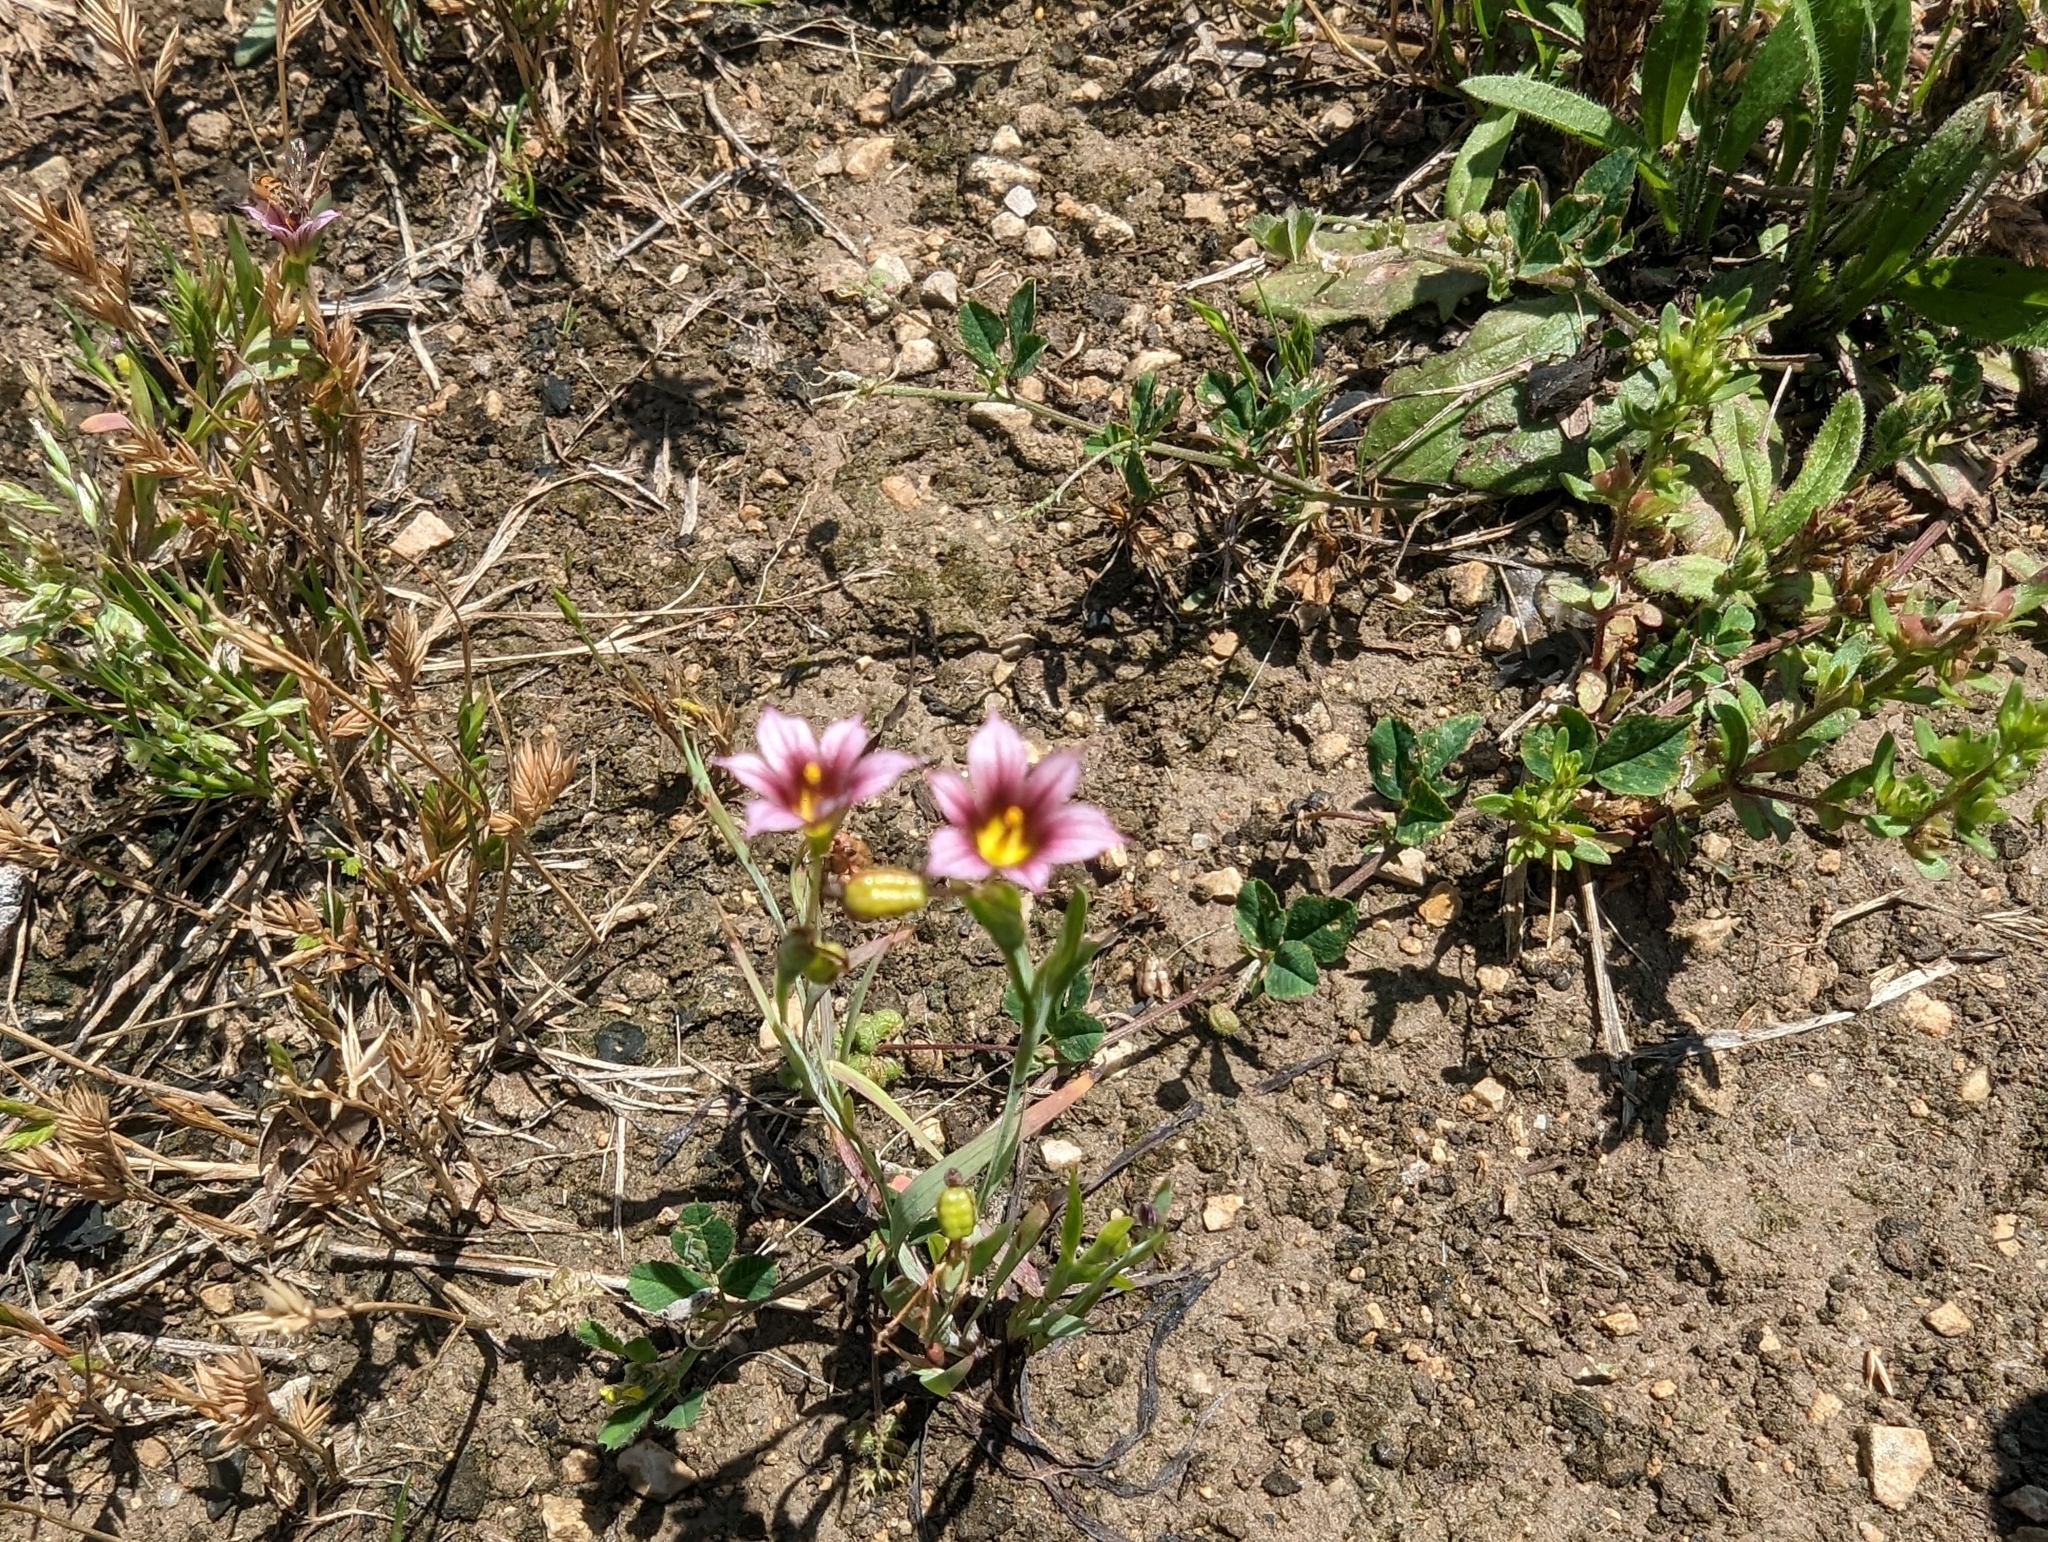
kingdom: Plantae
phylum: Tracheophyta
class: Liliopsida
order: Asparagales
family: Iridaceae
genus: Sisyrinchium
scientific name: Sisyrinchium minus
